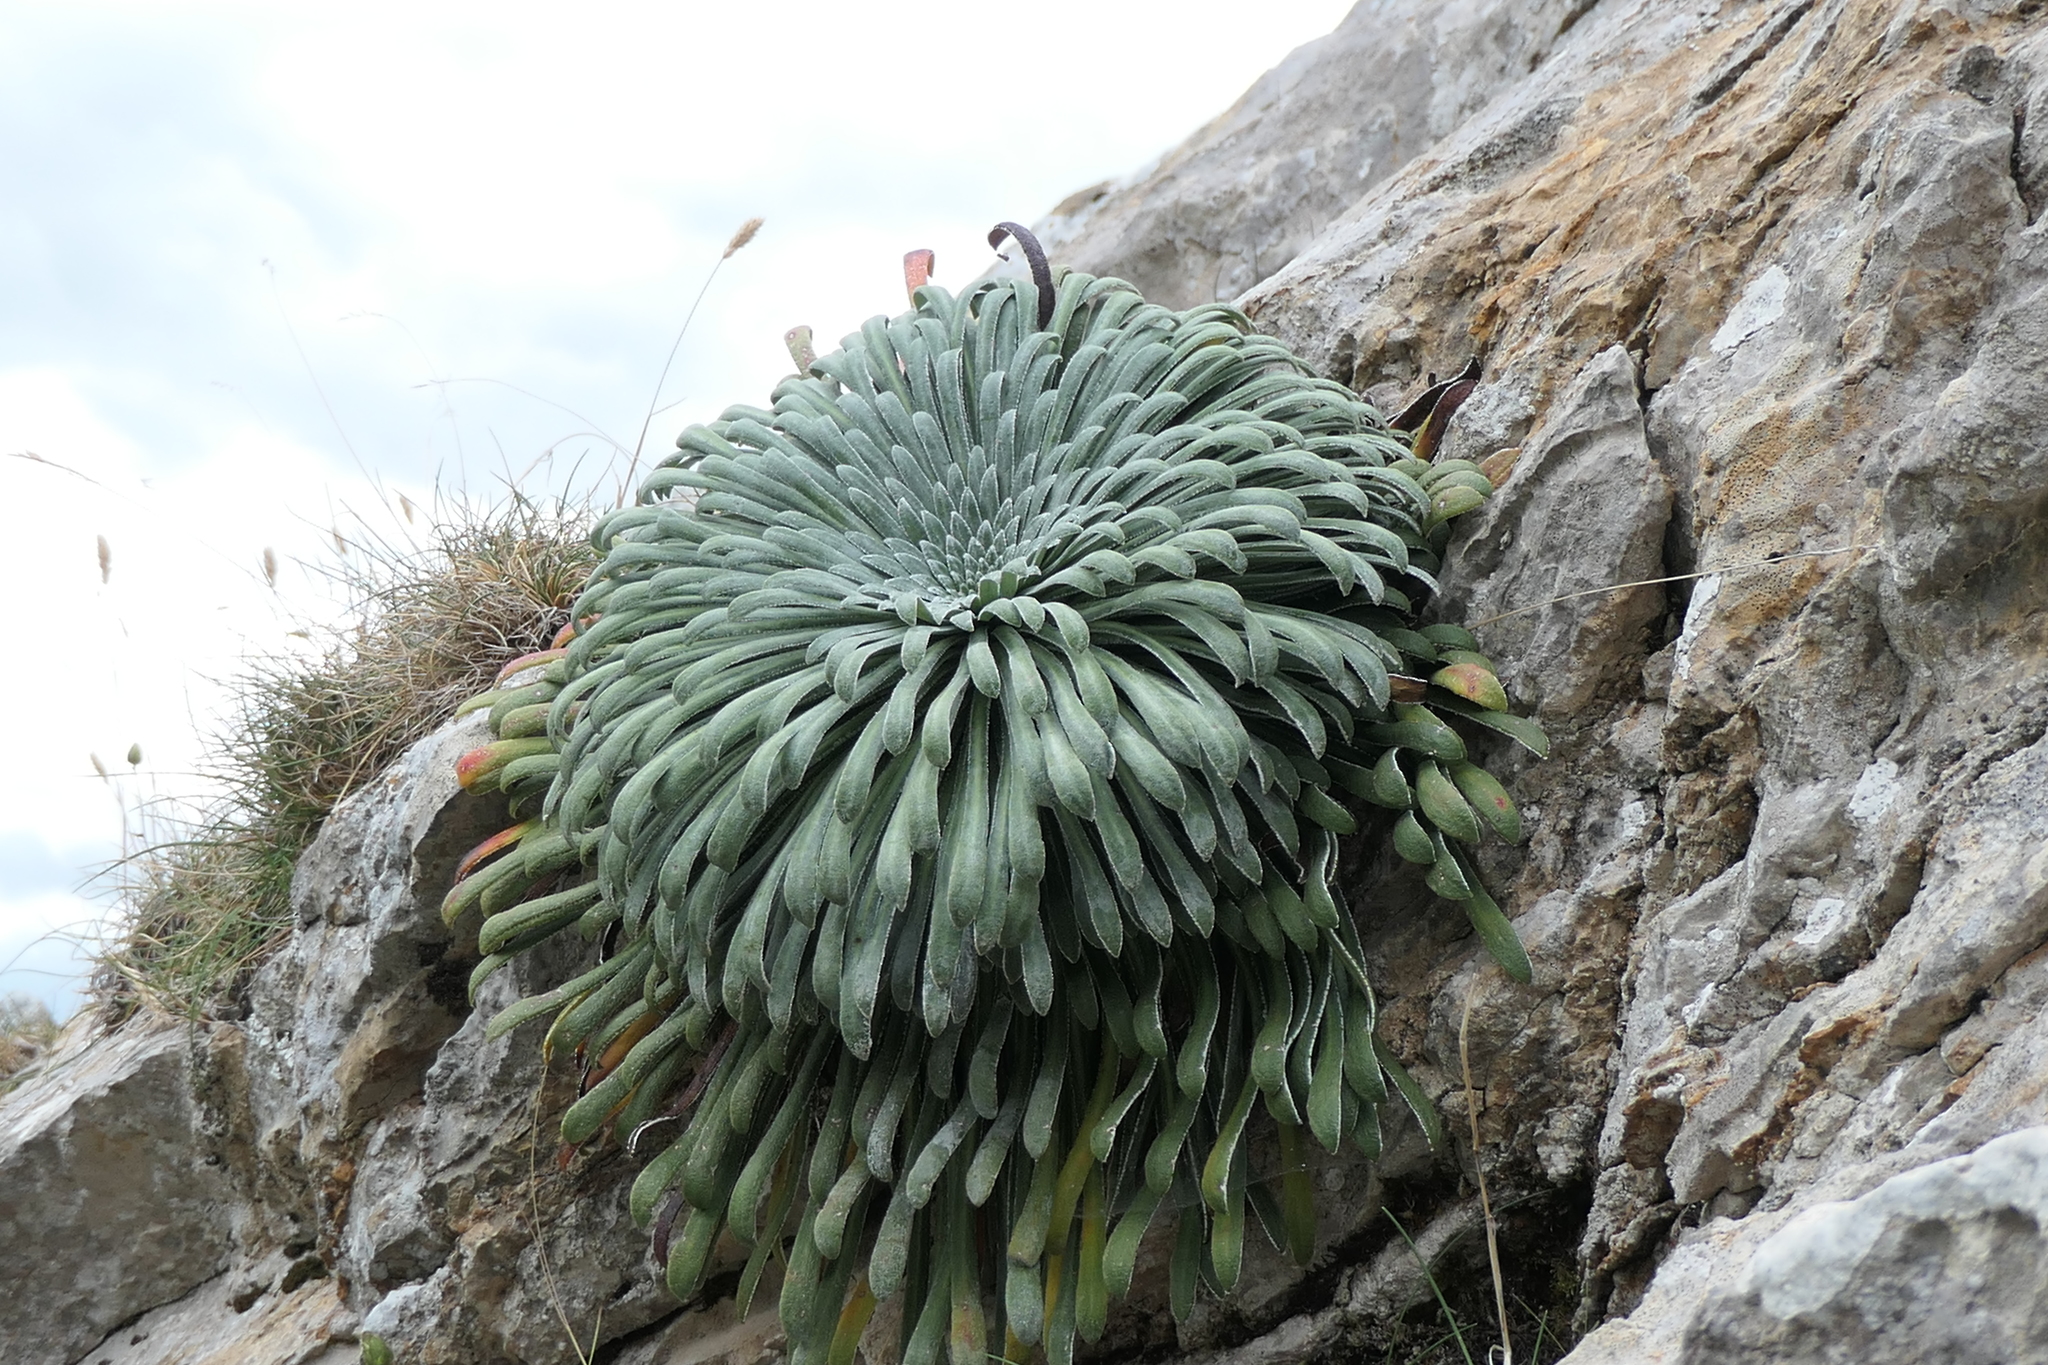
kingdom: Plantae
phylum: Tracheophyta
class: Magnoliopsida
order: Saxifragales
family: Saxifragaceae
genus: Saxifraga
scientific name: Saxifraga longifolia
